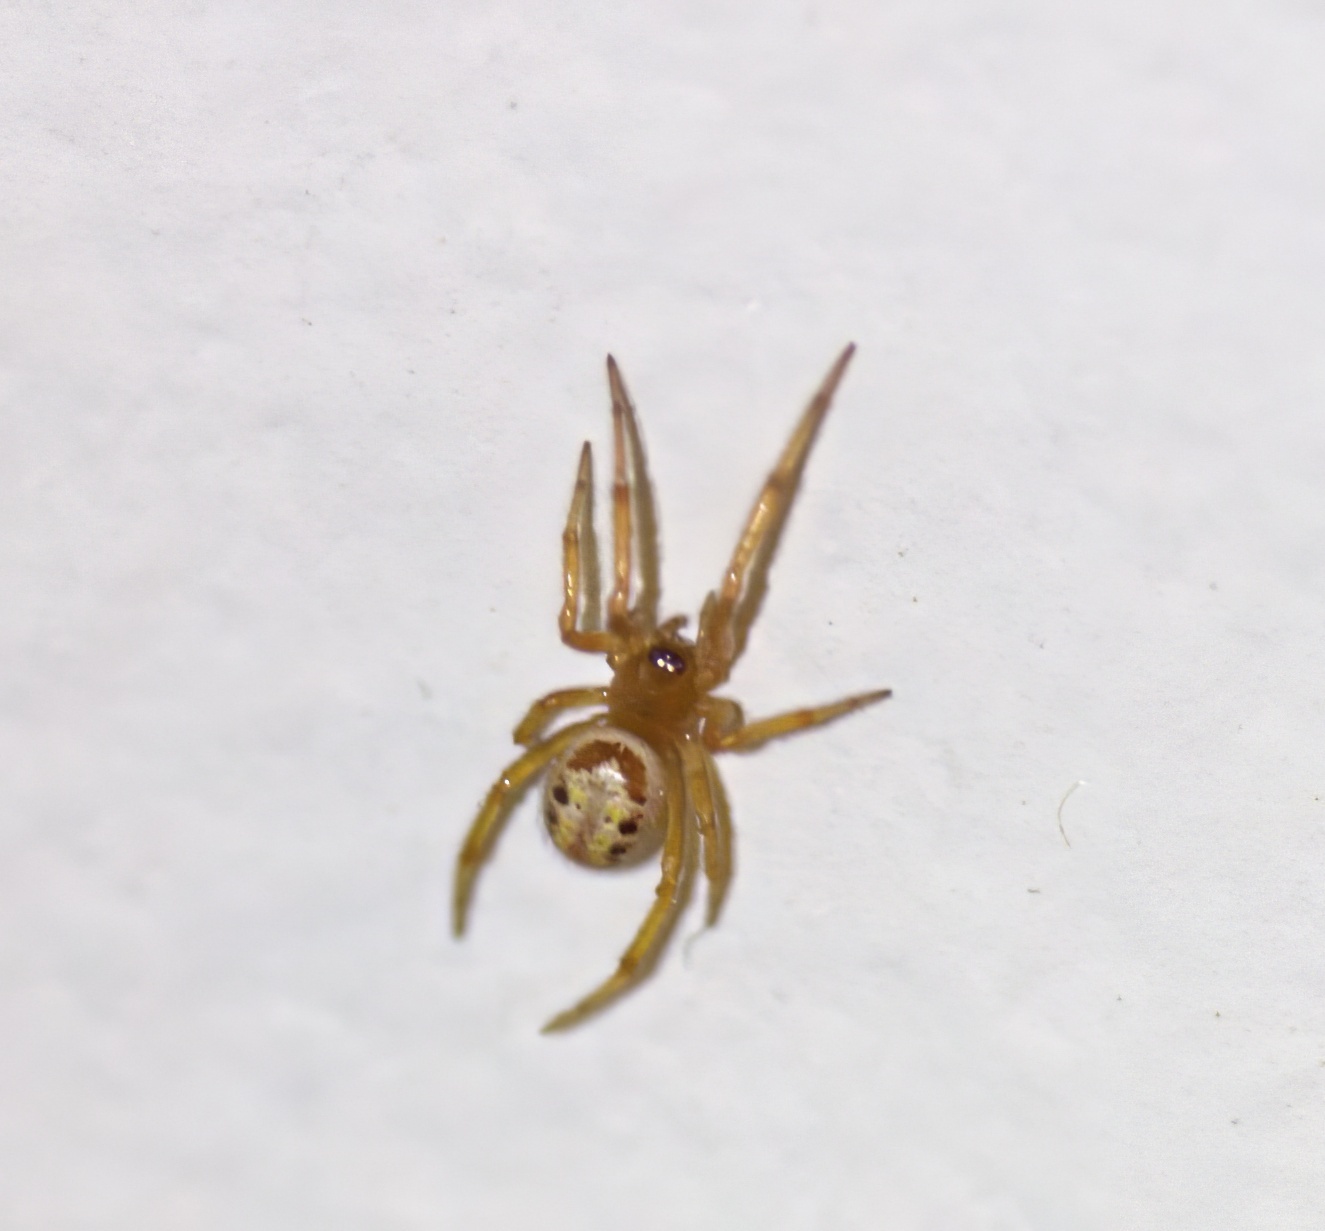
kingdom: Animalia
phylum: Arthropoda
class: Arachnida
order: Araneae
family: Theridiidae
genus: Steatoda
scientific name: Steatoda nobilis
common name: Cobweb weaver
